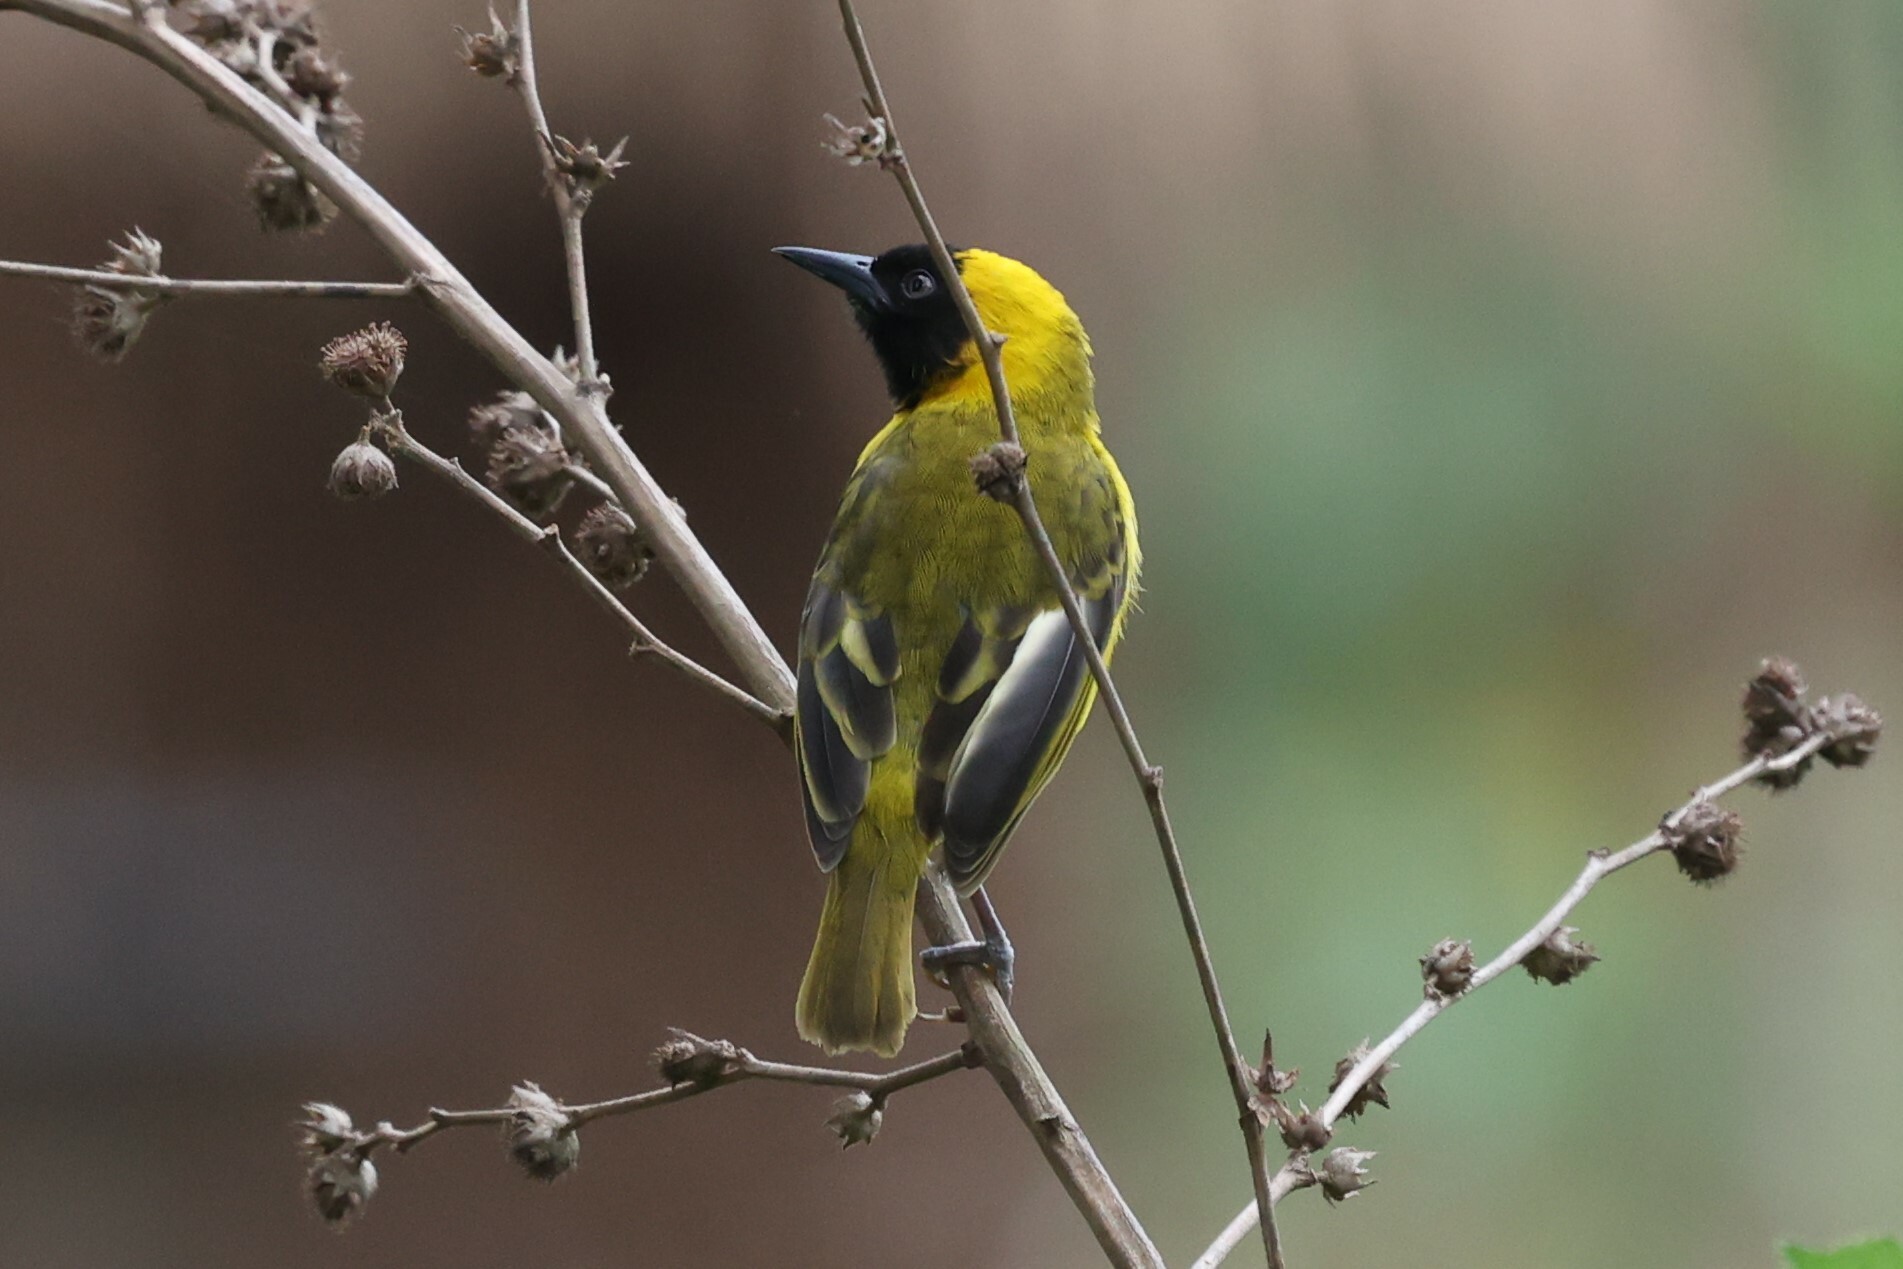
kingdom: Animalia
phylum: Chordata
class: Aves
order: Passeriformes
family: Ploceidae
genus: Ploceus
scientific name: Ploceus pelzelni
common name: Slender-billed weaver
